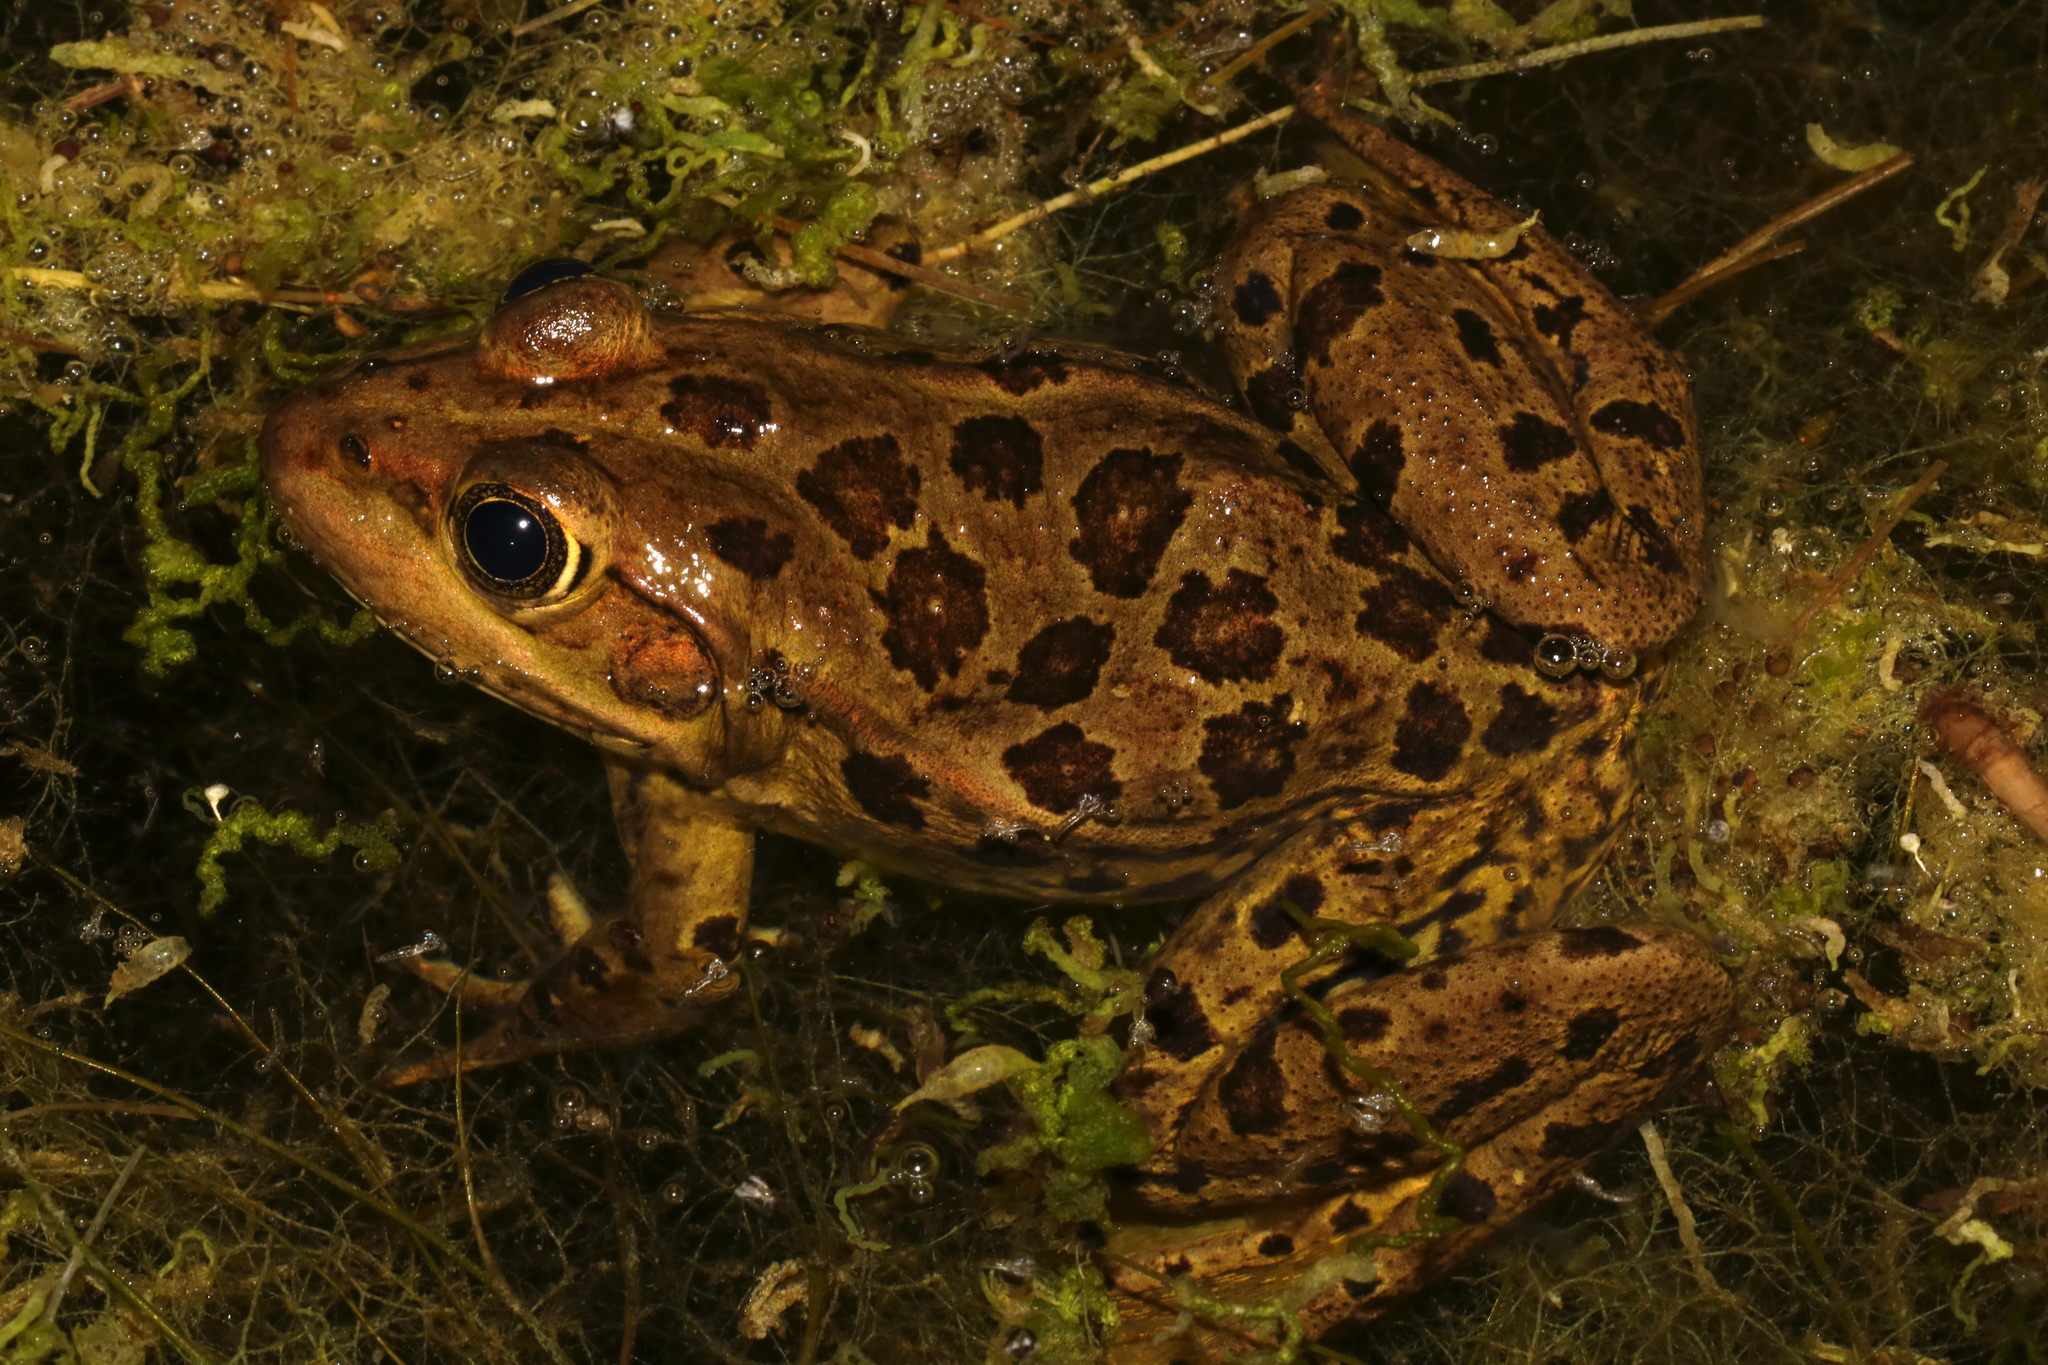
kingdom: Animalia
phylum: Chordata
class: Amphibia
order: Anura
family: Ranidae
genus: Pelophylax
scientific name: Pelophylax epeiroticus
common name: Epirus water frog
